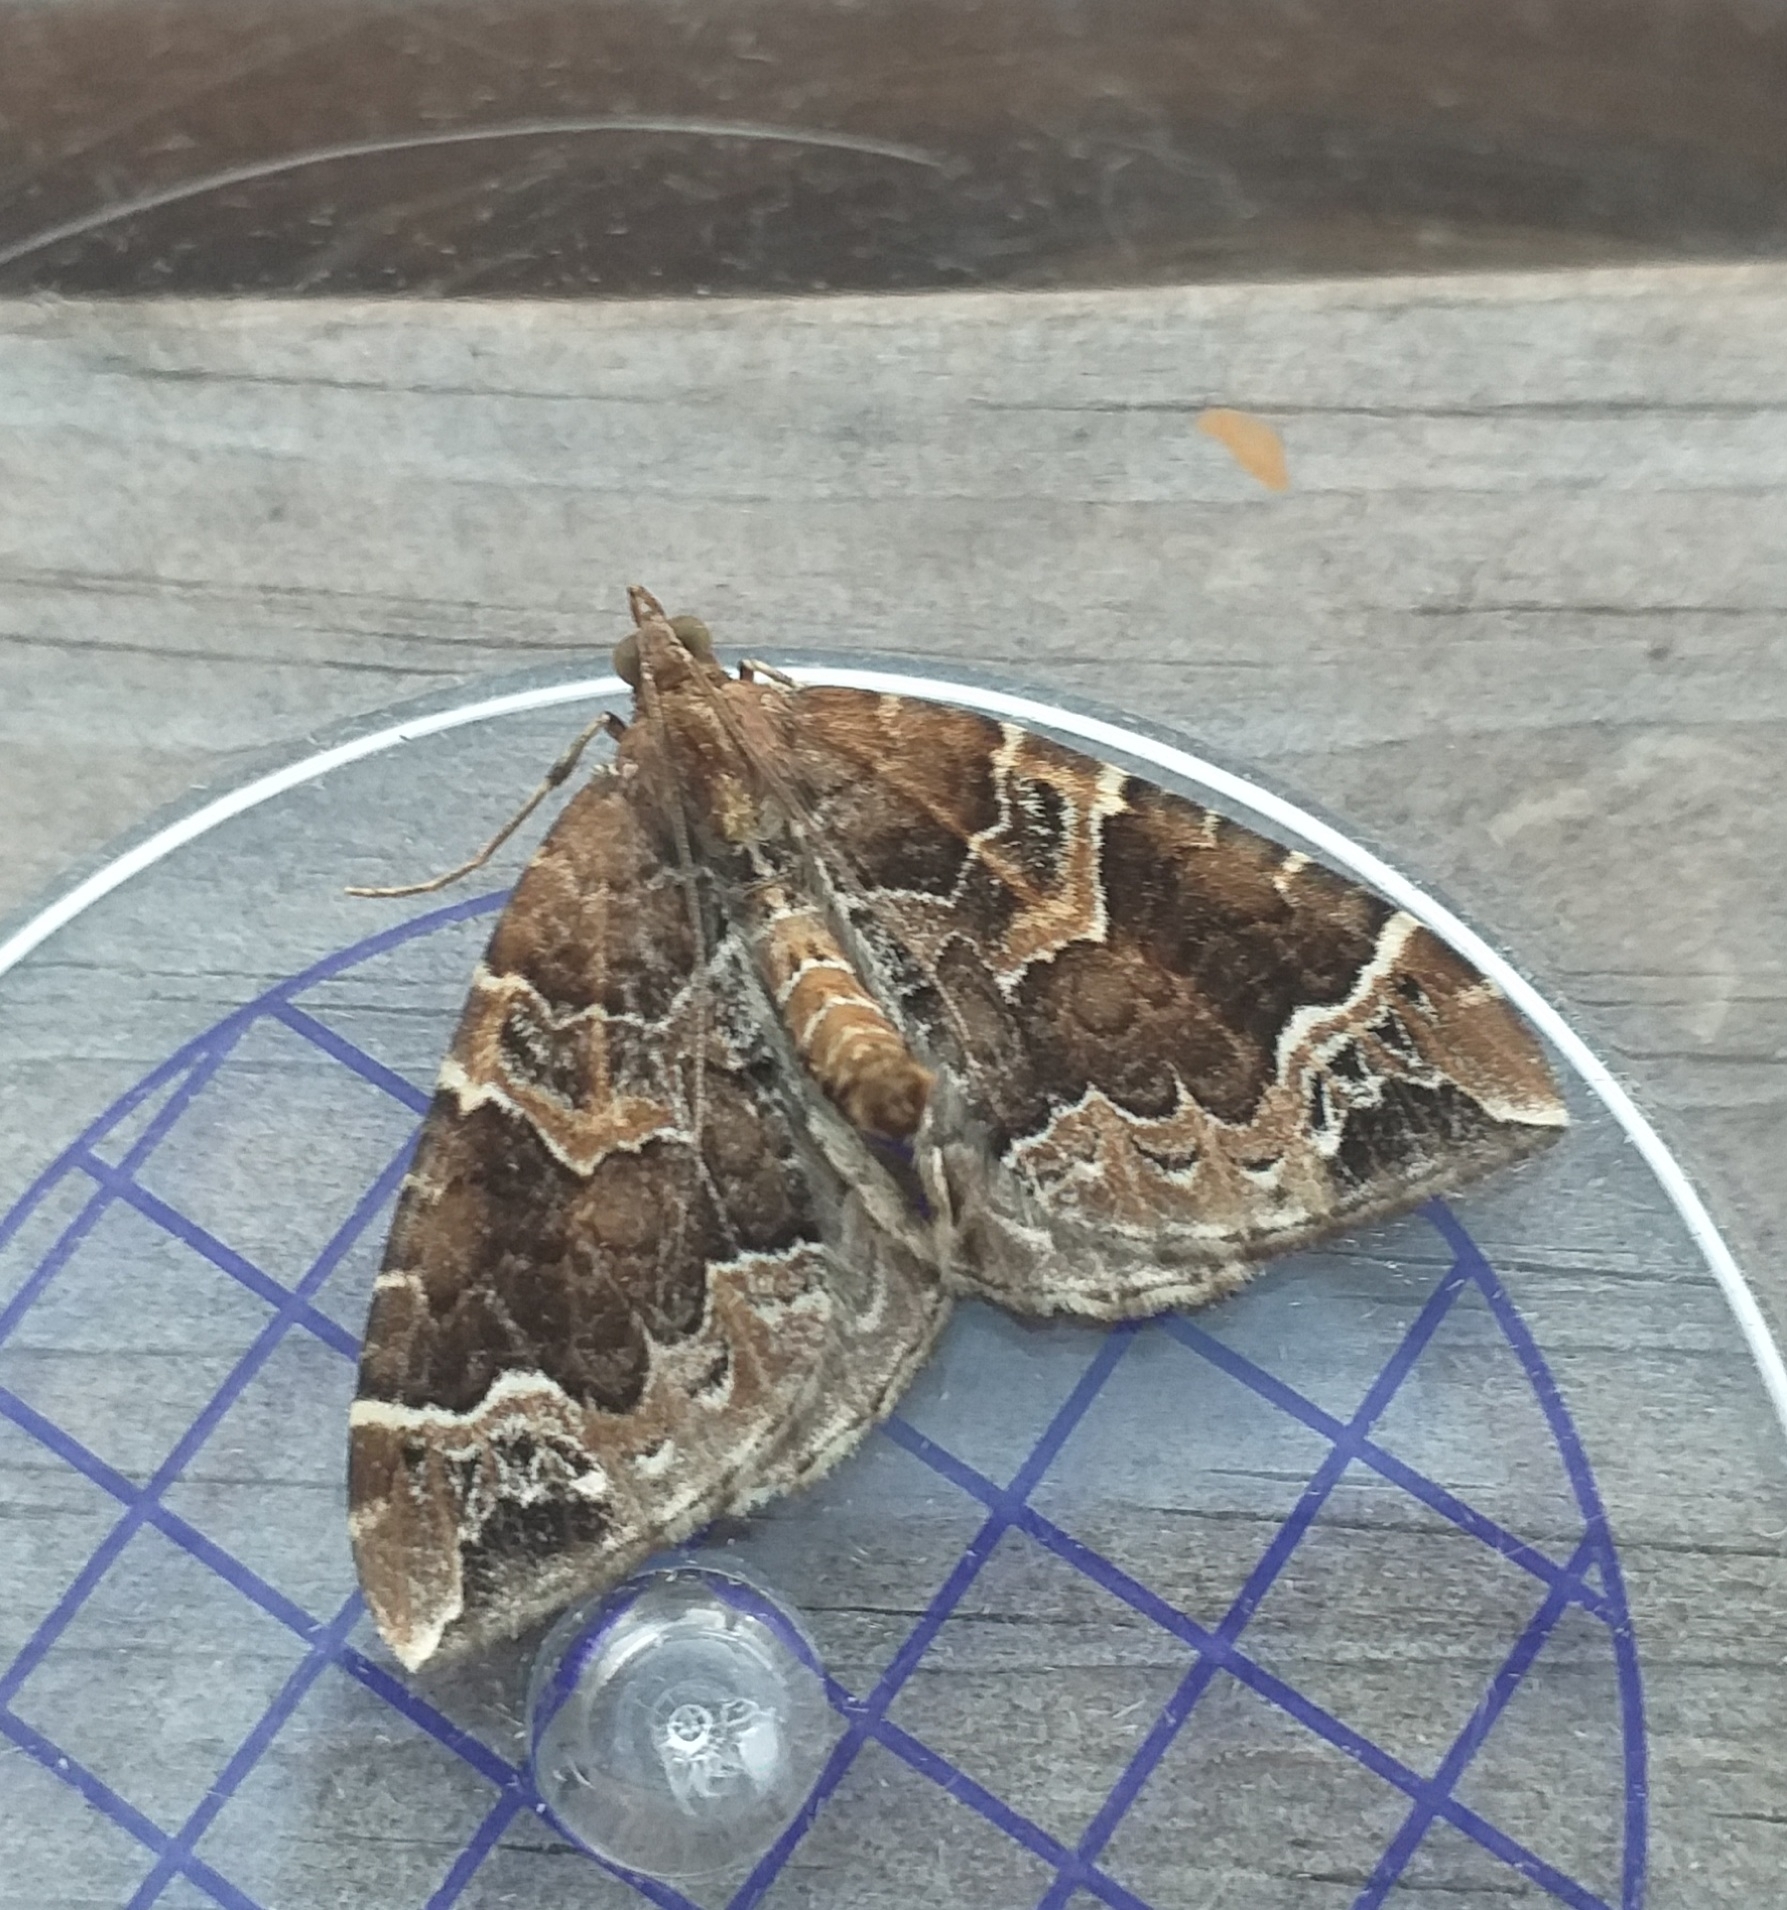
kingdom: Animalia
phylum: Arthropoda
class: Insecta
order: Lepidoptera
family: Geometridae
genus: Eulithis
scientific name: Eulithis prunata
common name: Phoenix
